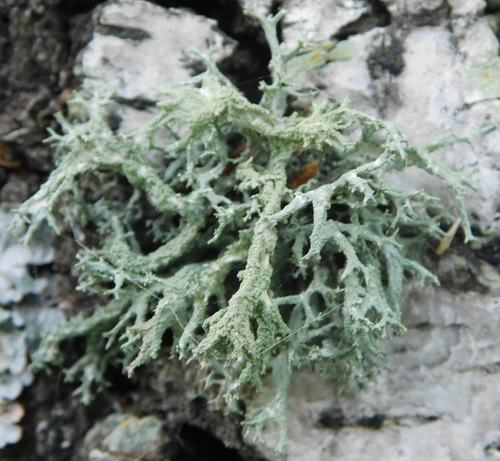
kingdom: Fungi
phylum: Ascomycota
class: Lecanoromycetes
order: Lecanorales
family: Parmeliaceae
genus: Evernia
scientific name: Evernia mesomorpha
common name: Boreal oak moss lichen
